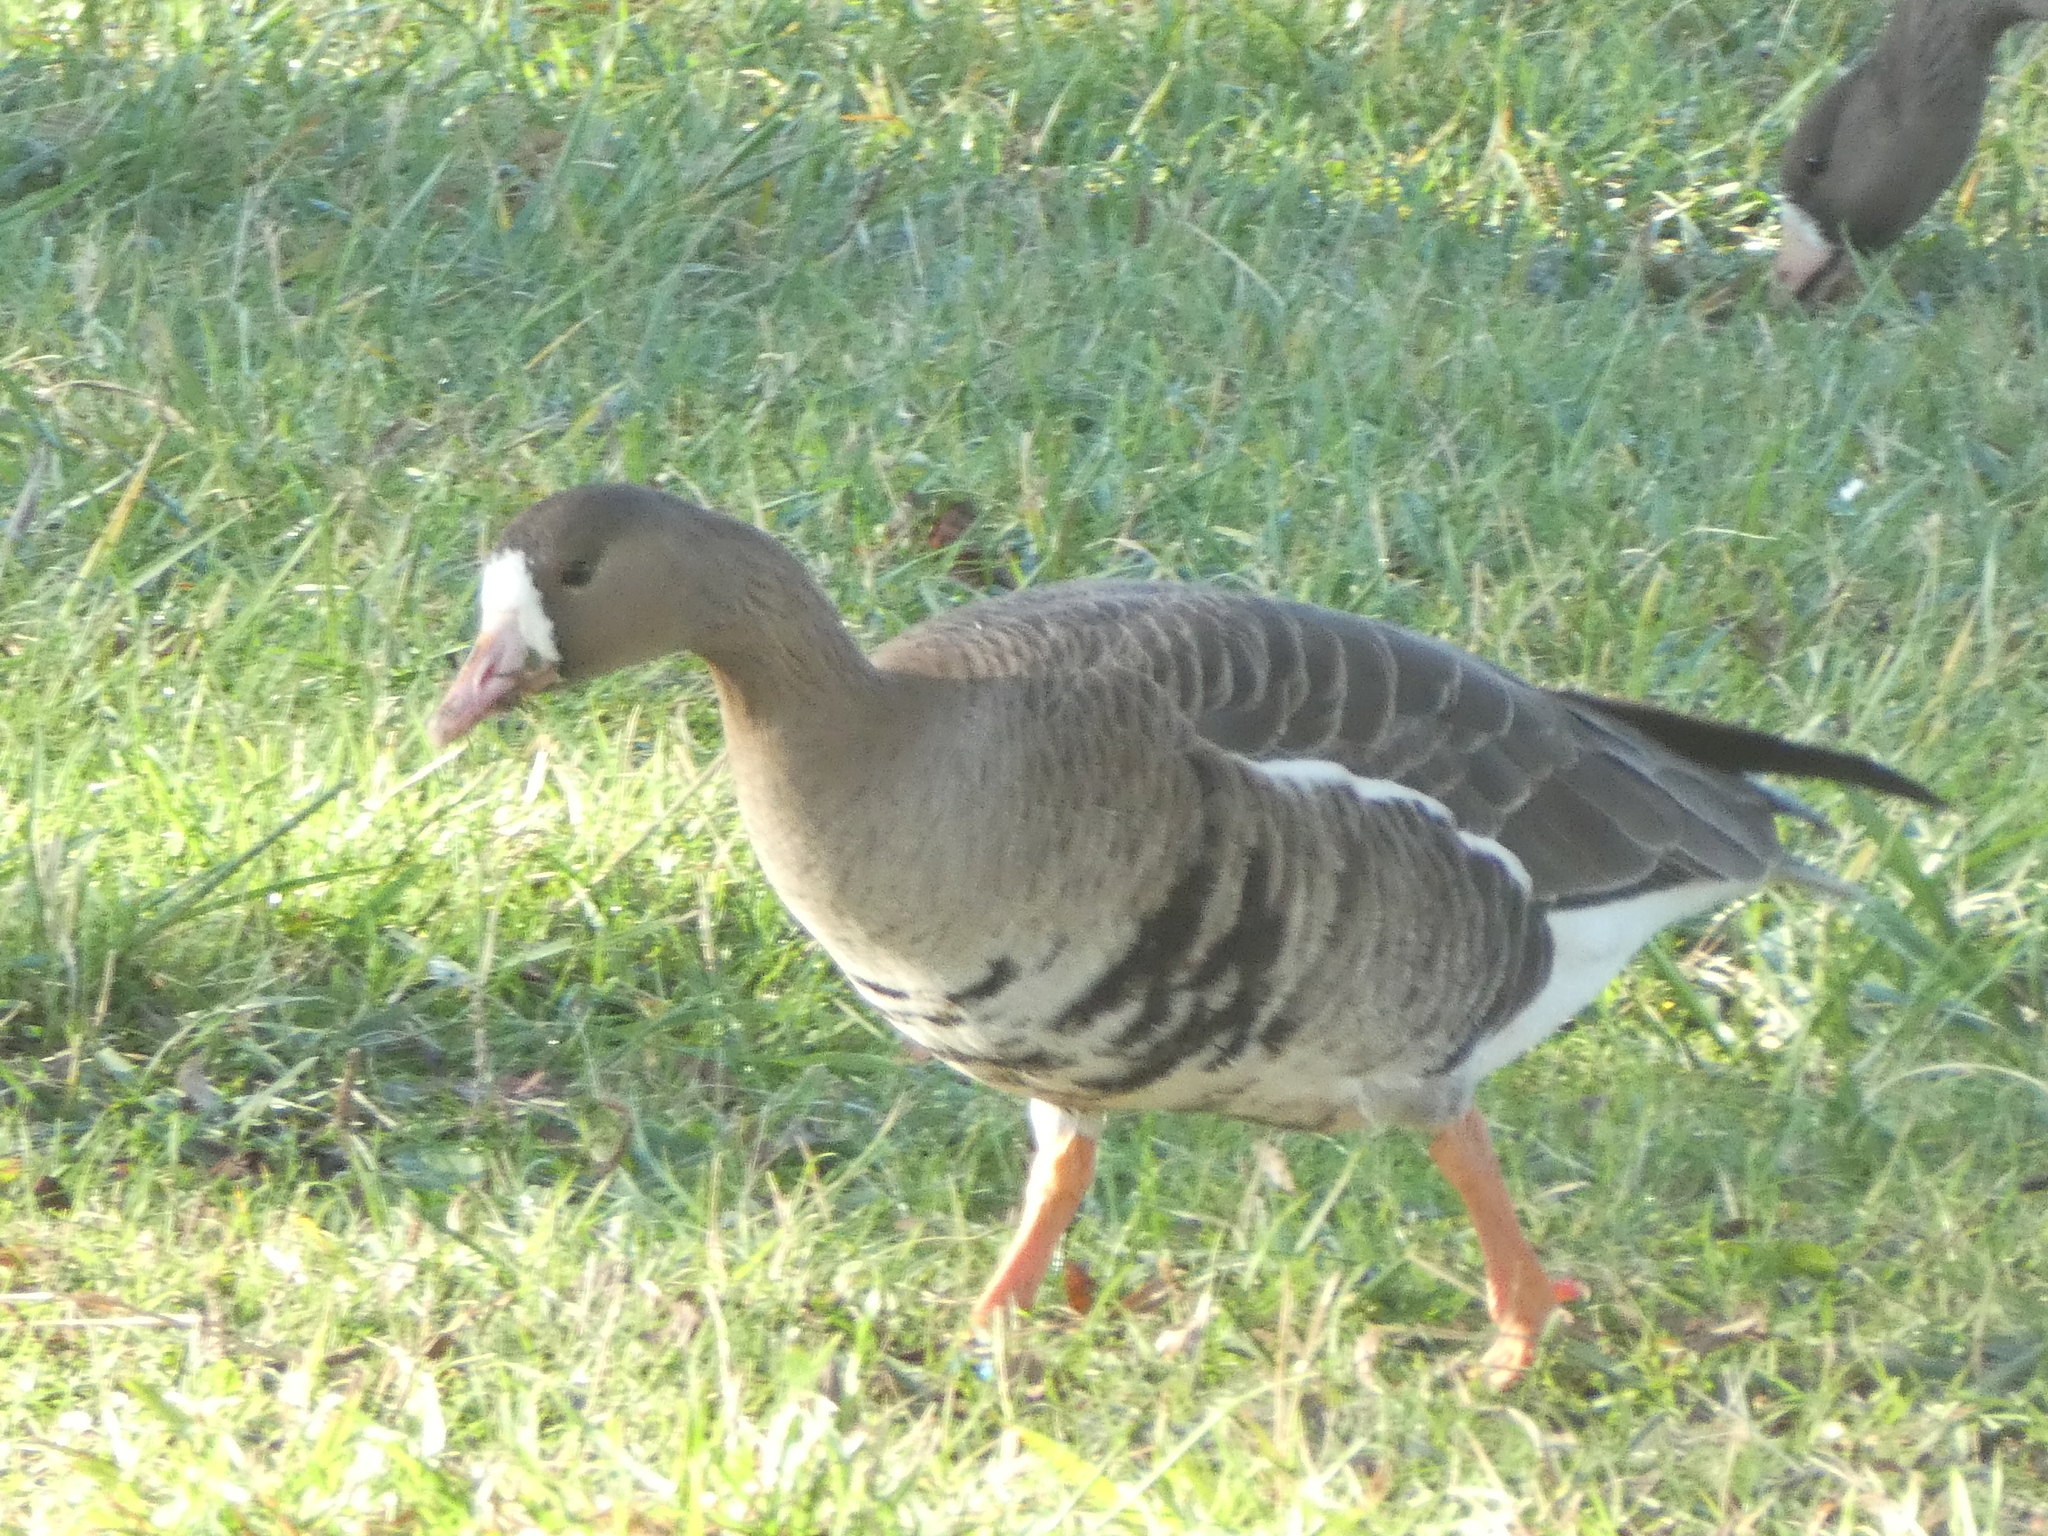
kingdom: Animalia
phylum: Chordata
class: Aves
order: Anseriformes
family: Anatidae
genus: Anser
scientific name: Anser albifrons
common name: Greater white-fronted goose
